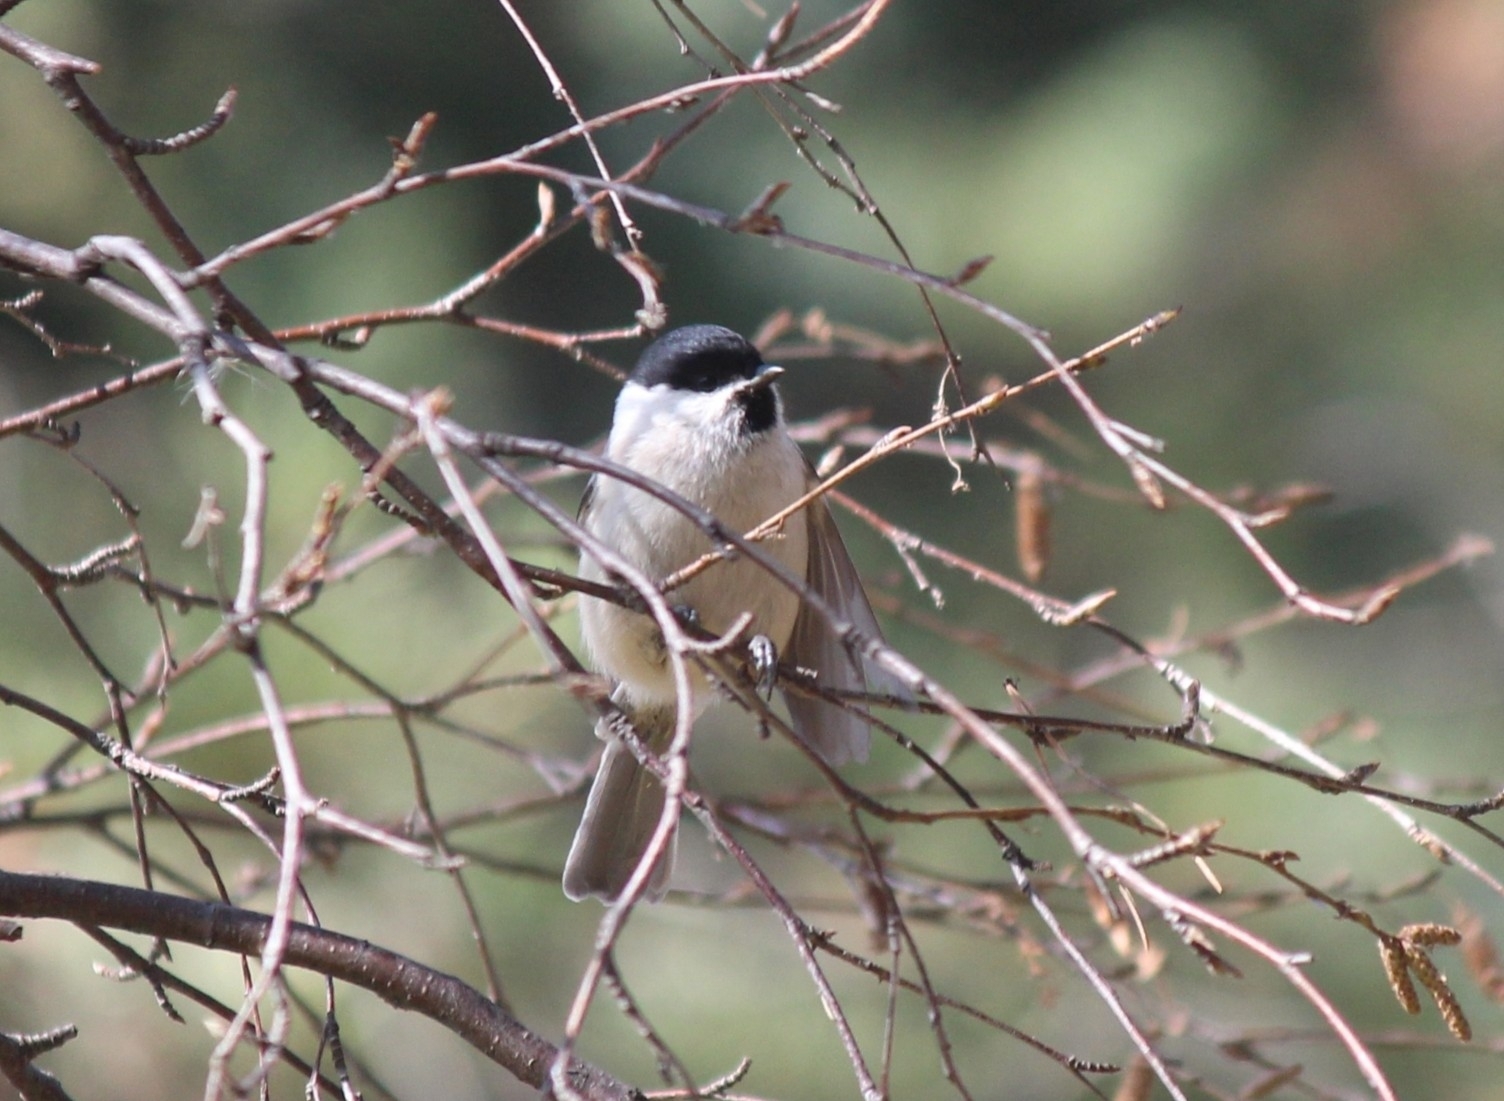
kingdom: Animalia
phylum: Chordata
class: Aves
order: Passeriformes
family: Paridae
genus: Poecile
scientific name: Poecile palustris
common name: Marsh tit
